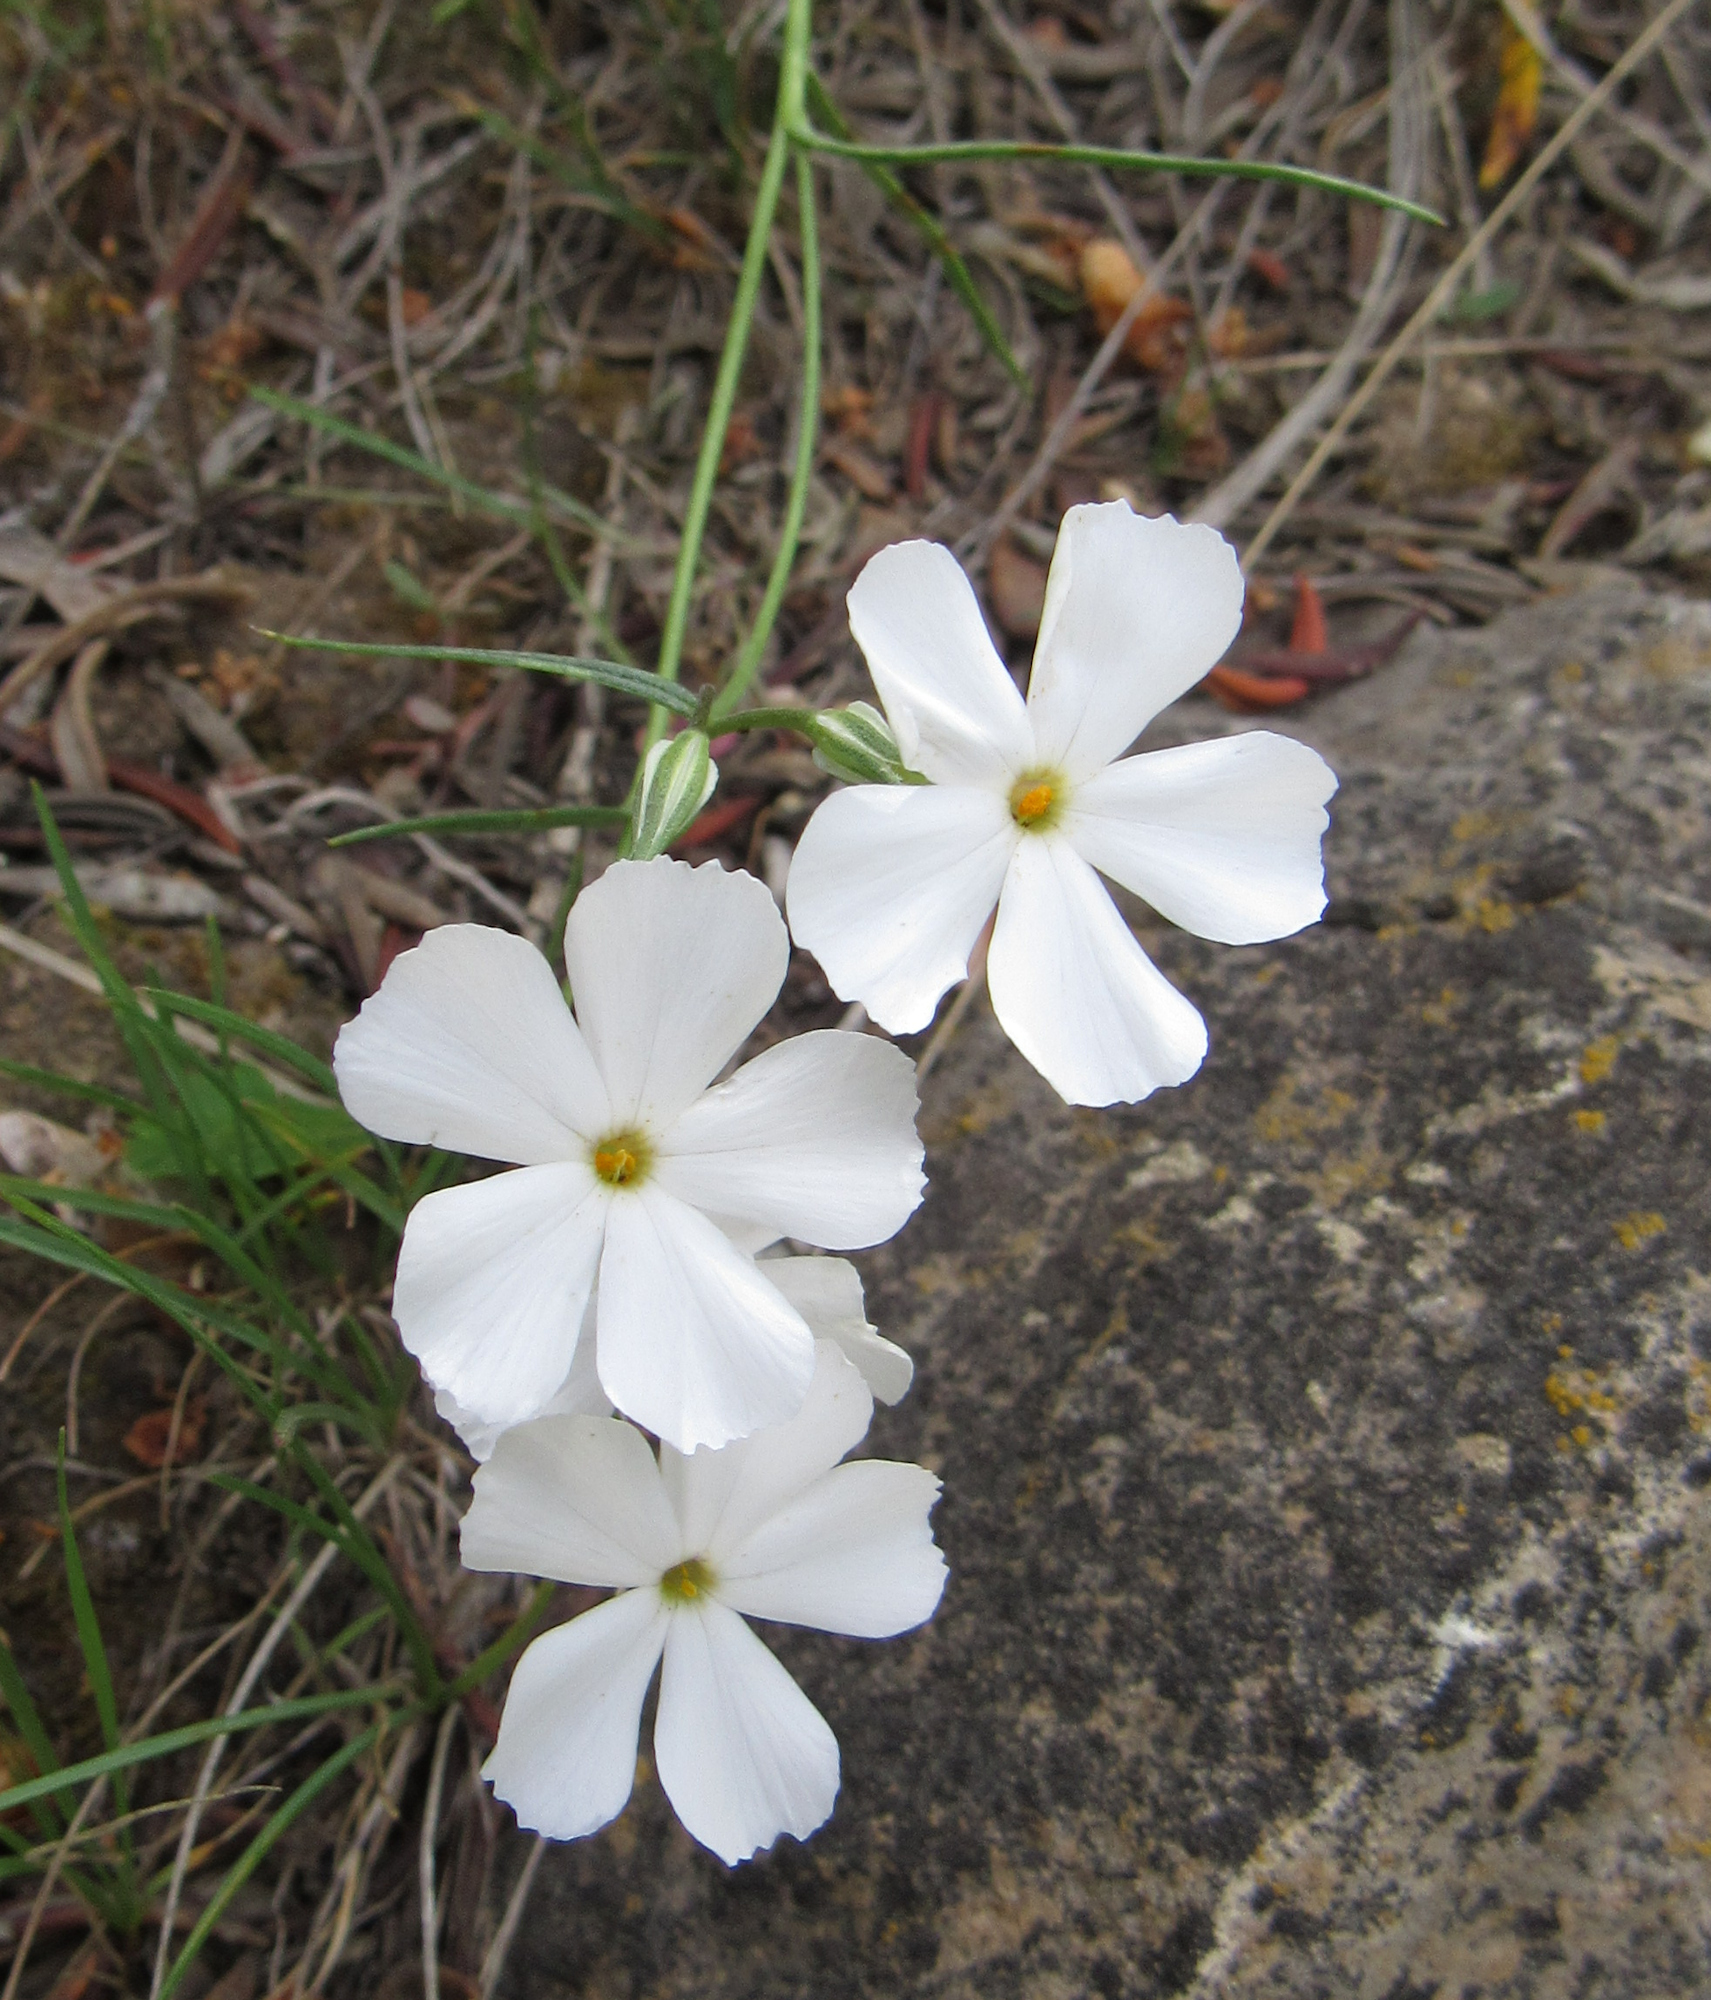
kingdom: Plantae
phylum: Tracheophyta
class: Magnoliopsida
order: Ericales
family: Polemoniaceae
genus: Phlox
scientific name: Phlox longifolia
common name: Longleaf phlox
